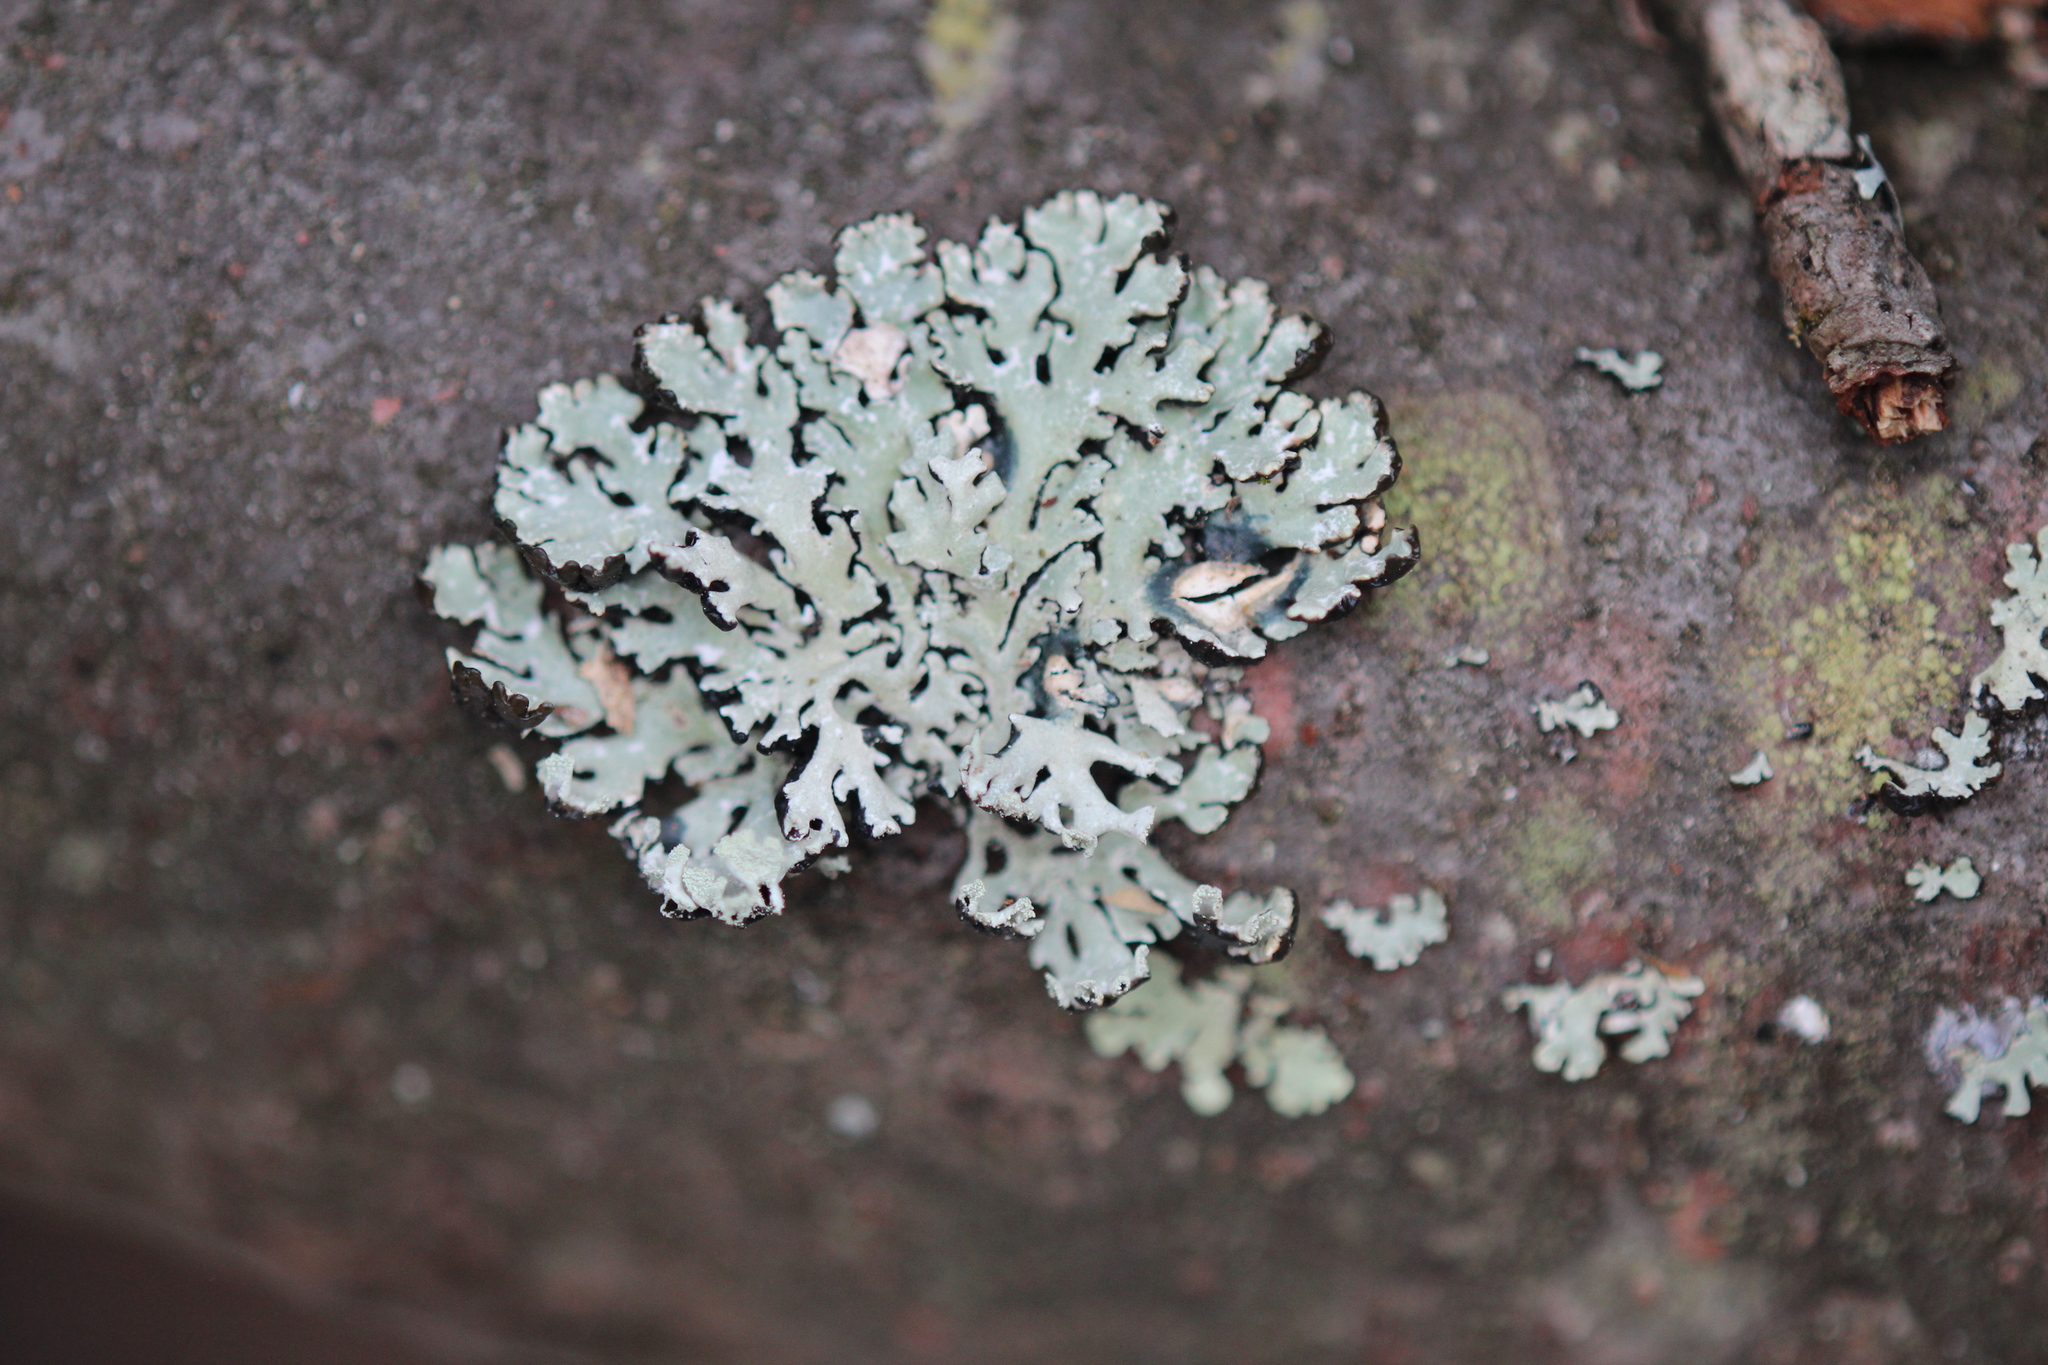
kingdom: Fungi
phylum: Ascomycota
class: Lecanoromycetes
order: Lecanorales
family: Parmeliaceae
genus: Hypogymnia
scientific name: Hypogymnia physodes
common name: Dark crottle
